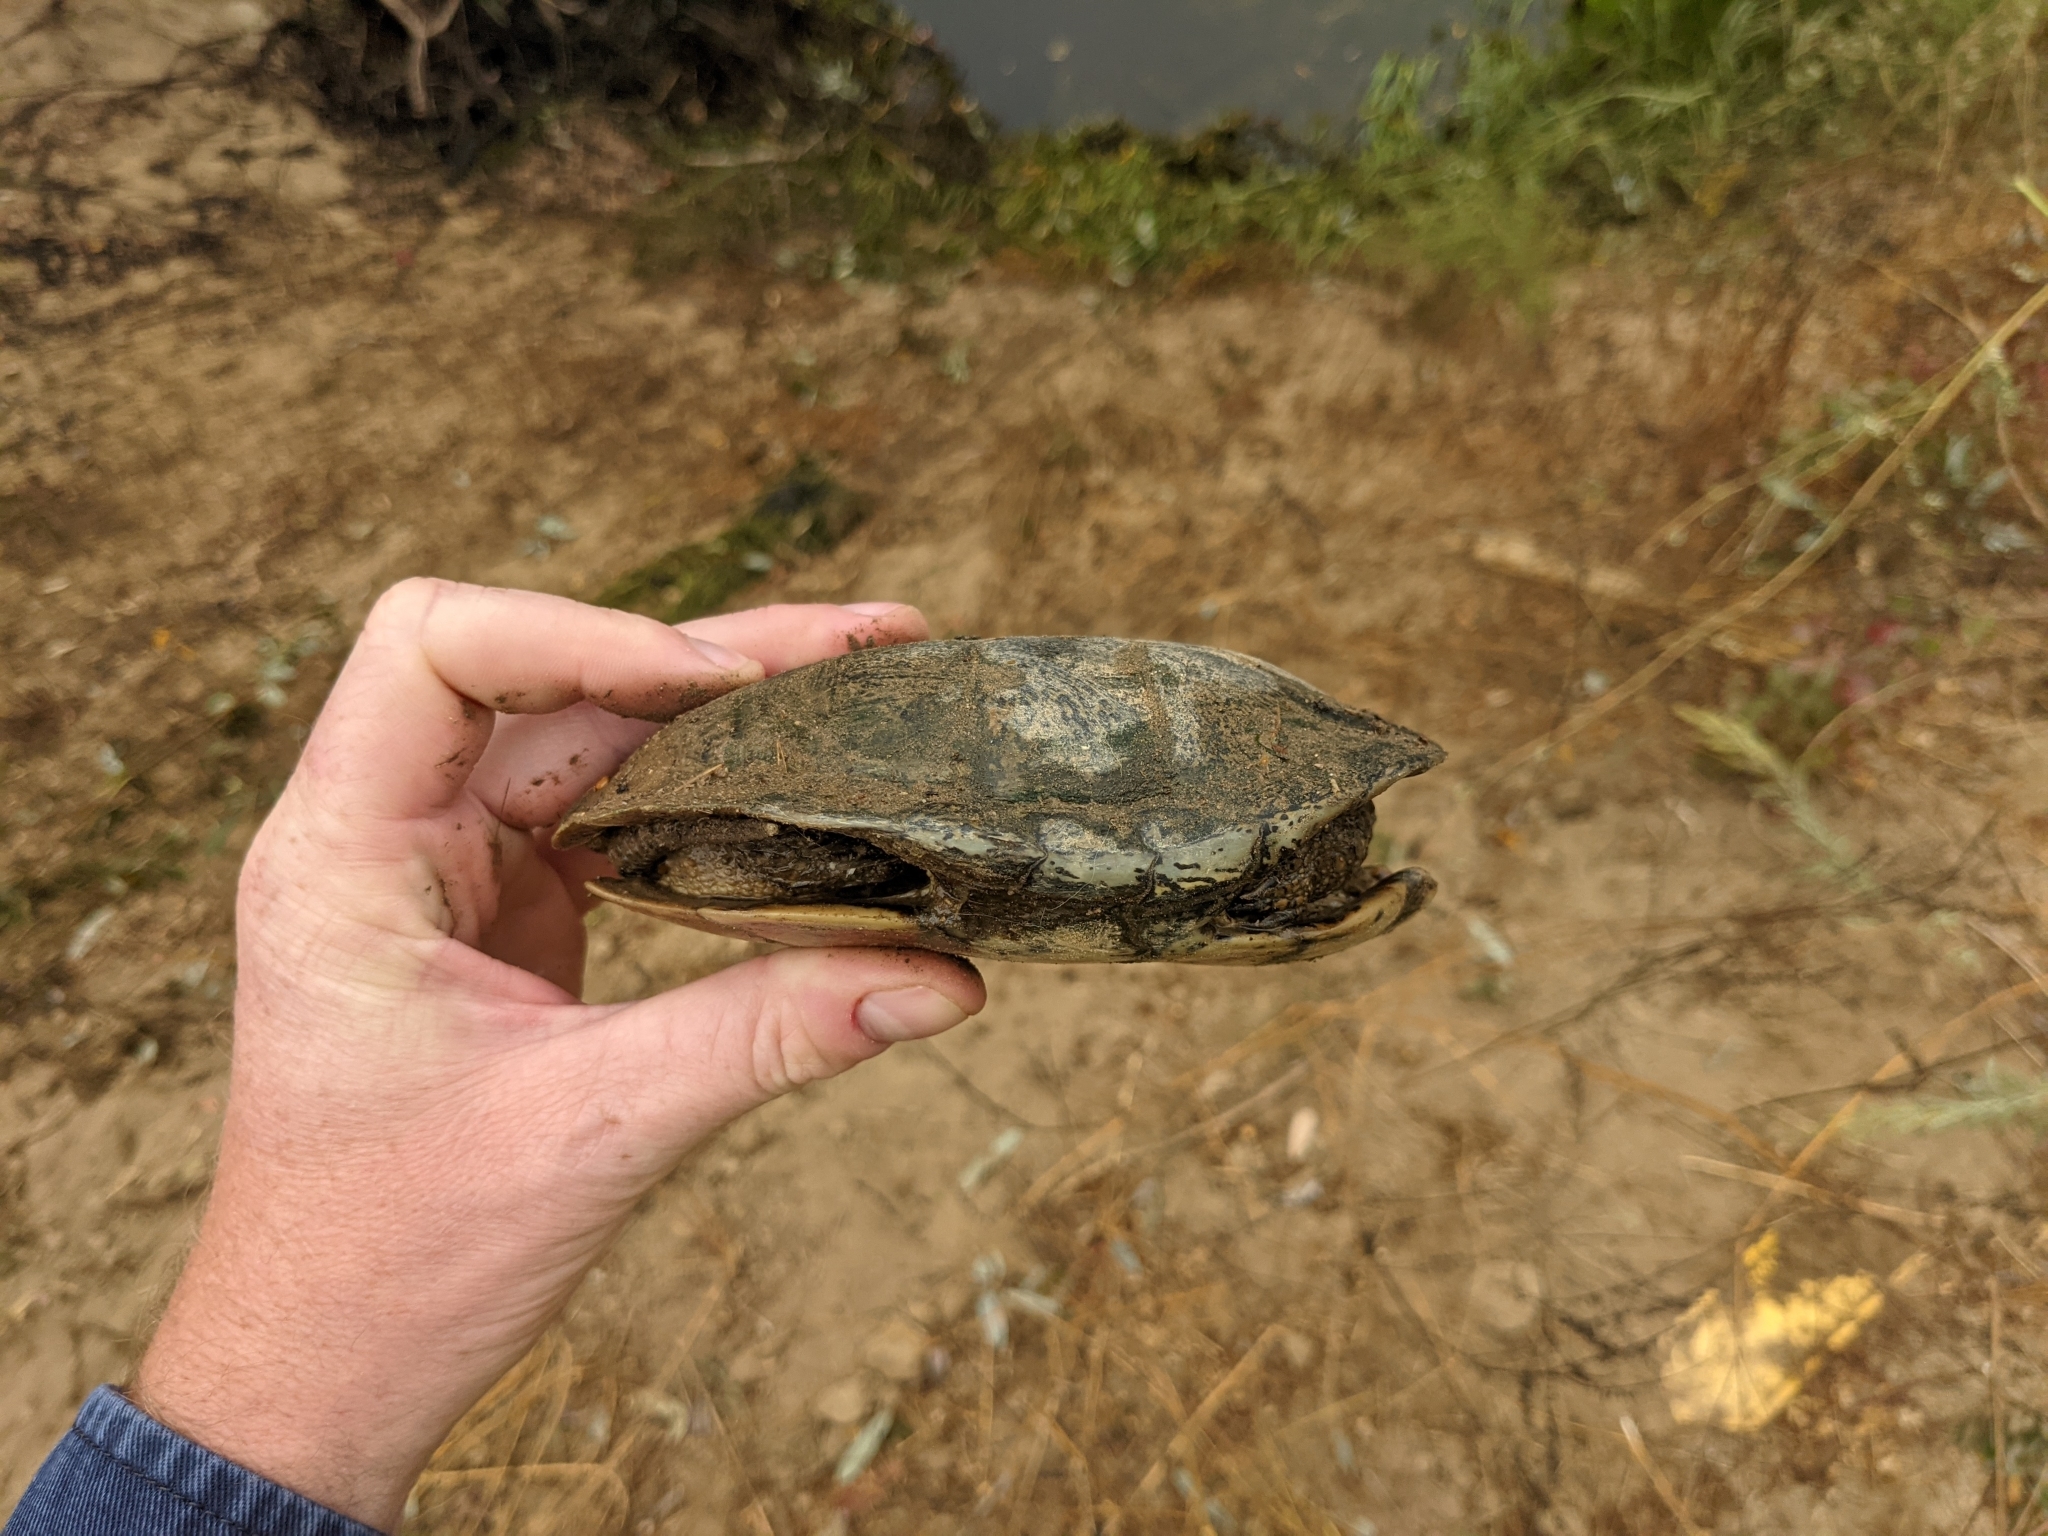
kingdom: Animalia
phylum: Chordata
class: Testudines
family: Emydidae
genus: Actinemys
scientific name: Actinemys marmorata
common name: Western pond turtle
